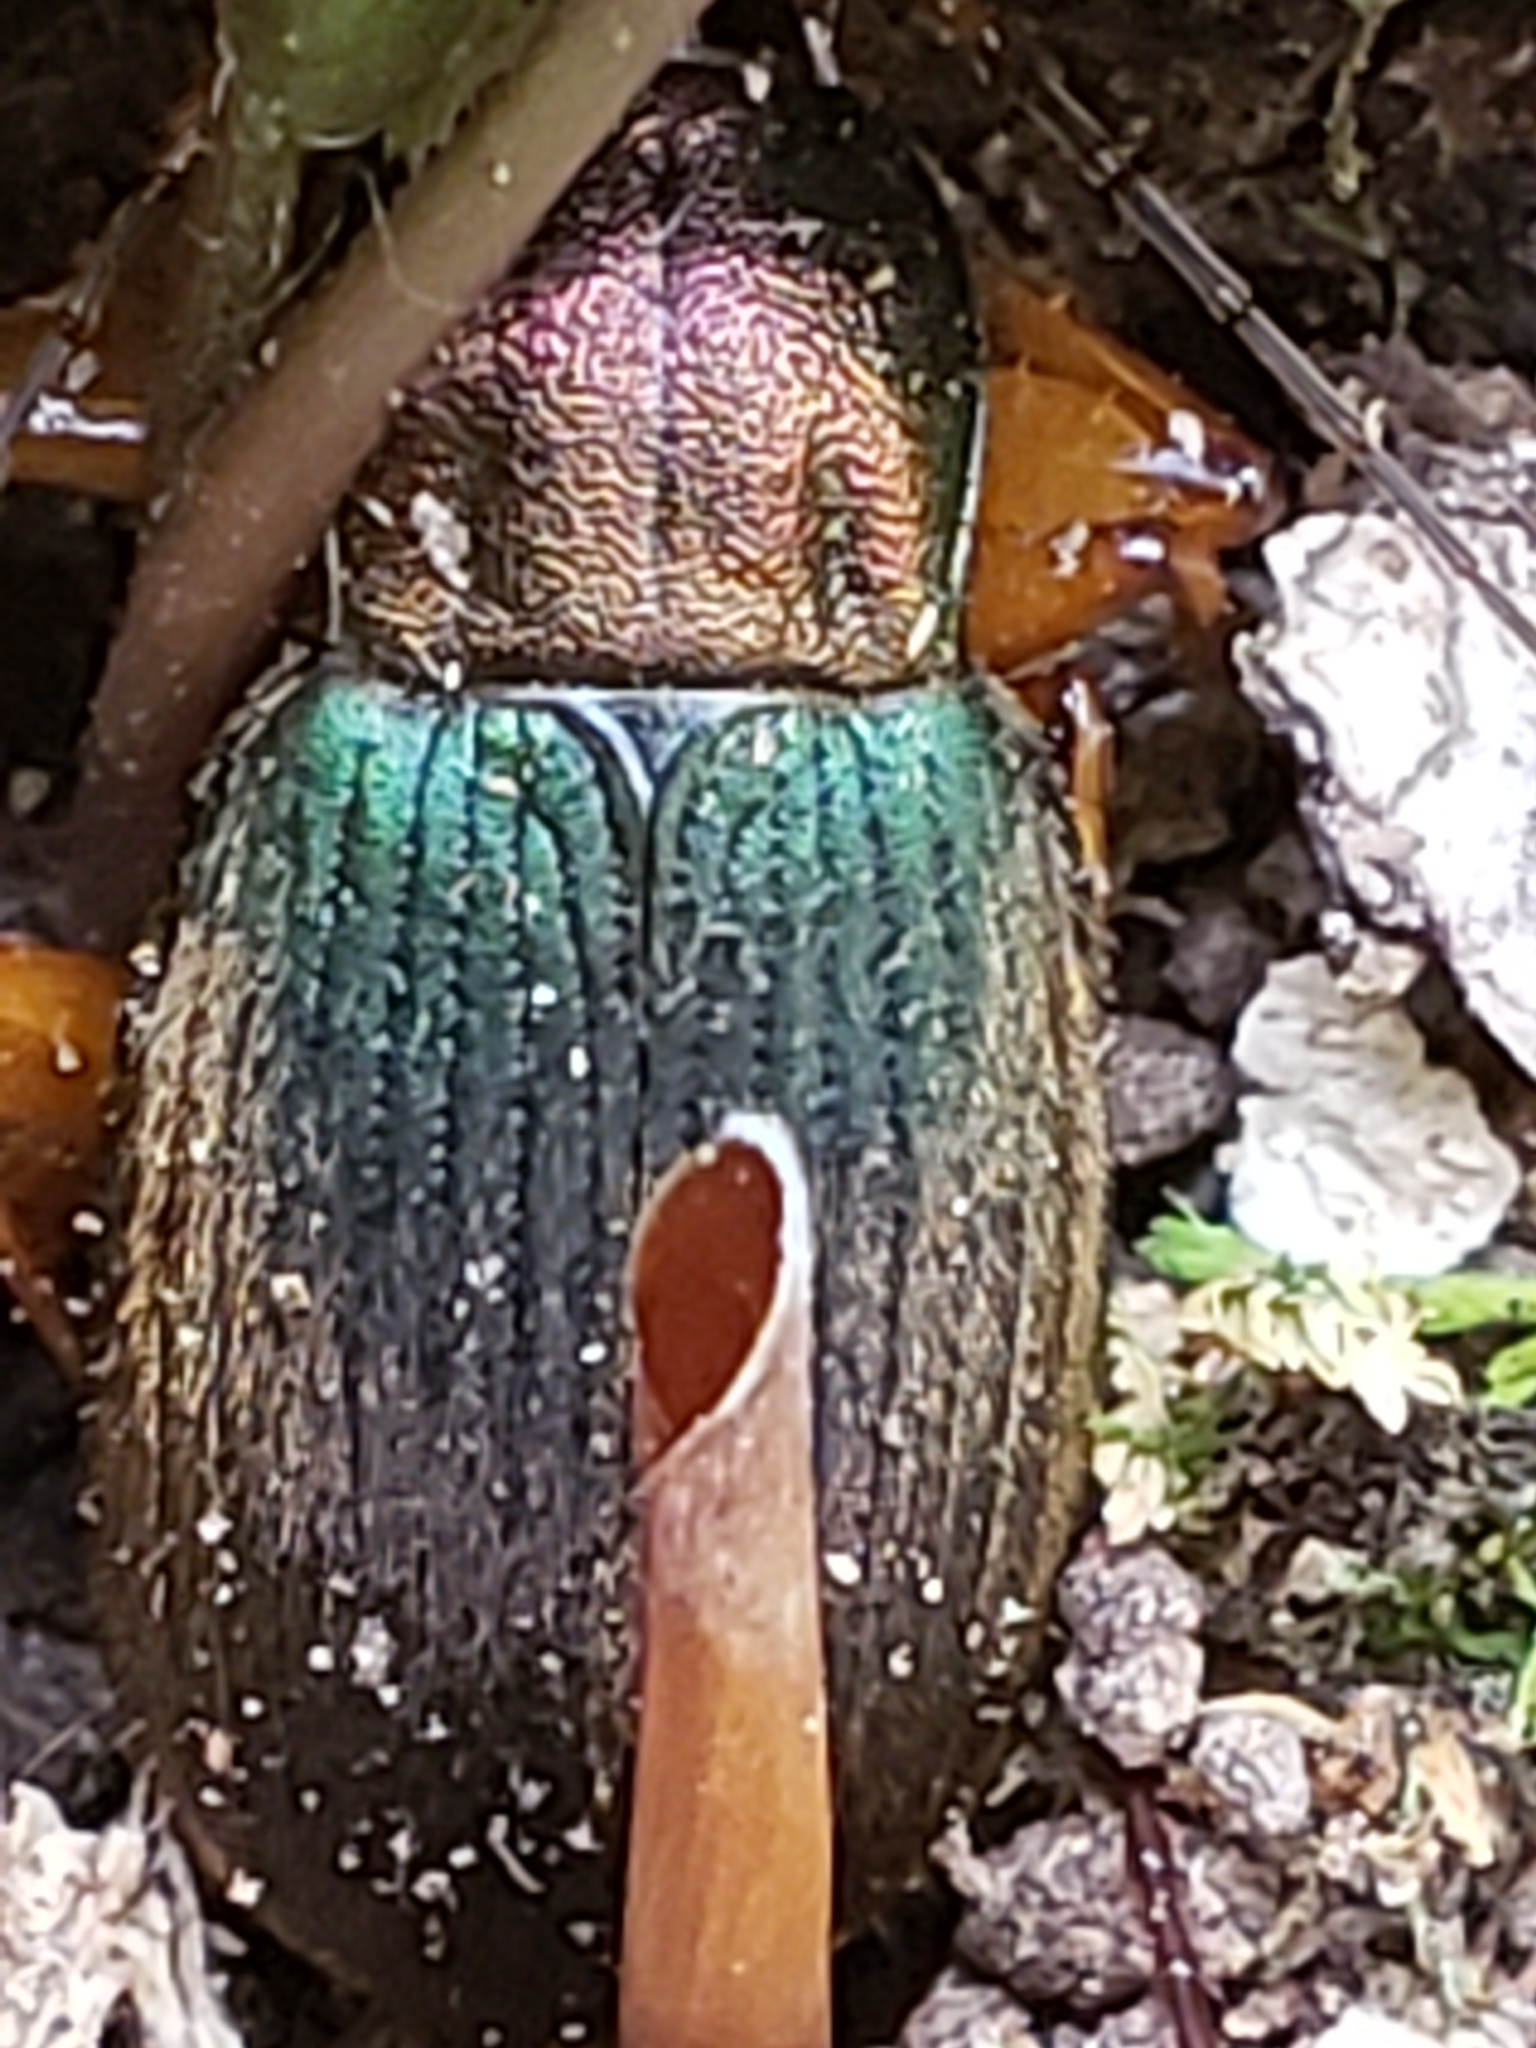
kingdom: Animalia
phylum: Arthropoda
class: Insecta
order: Coleoptera
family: Carabidae
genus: Chlaenius
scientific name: Chlaenius aestivus
